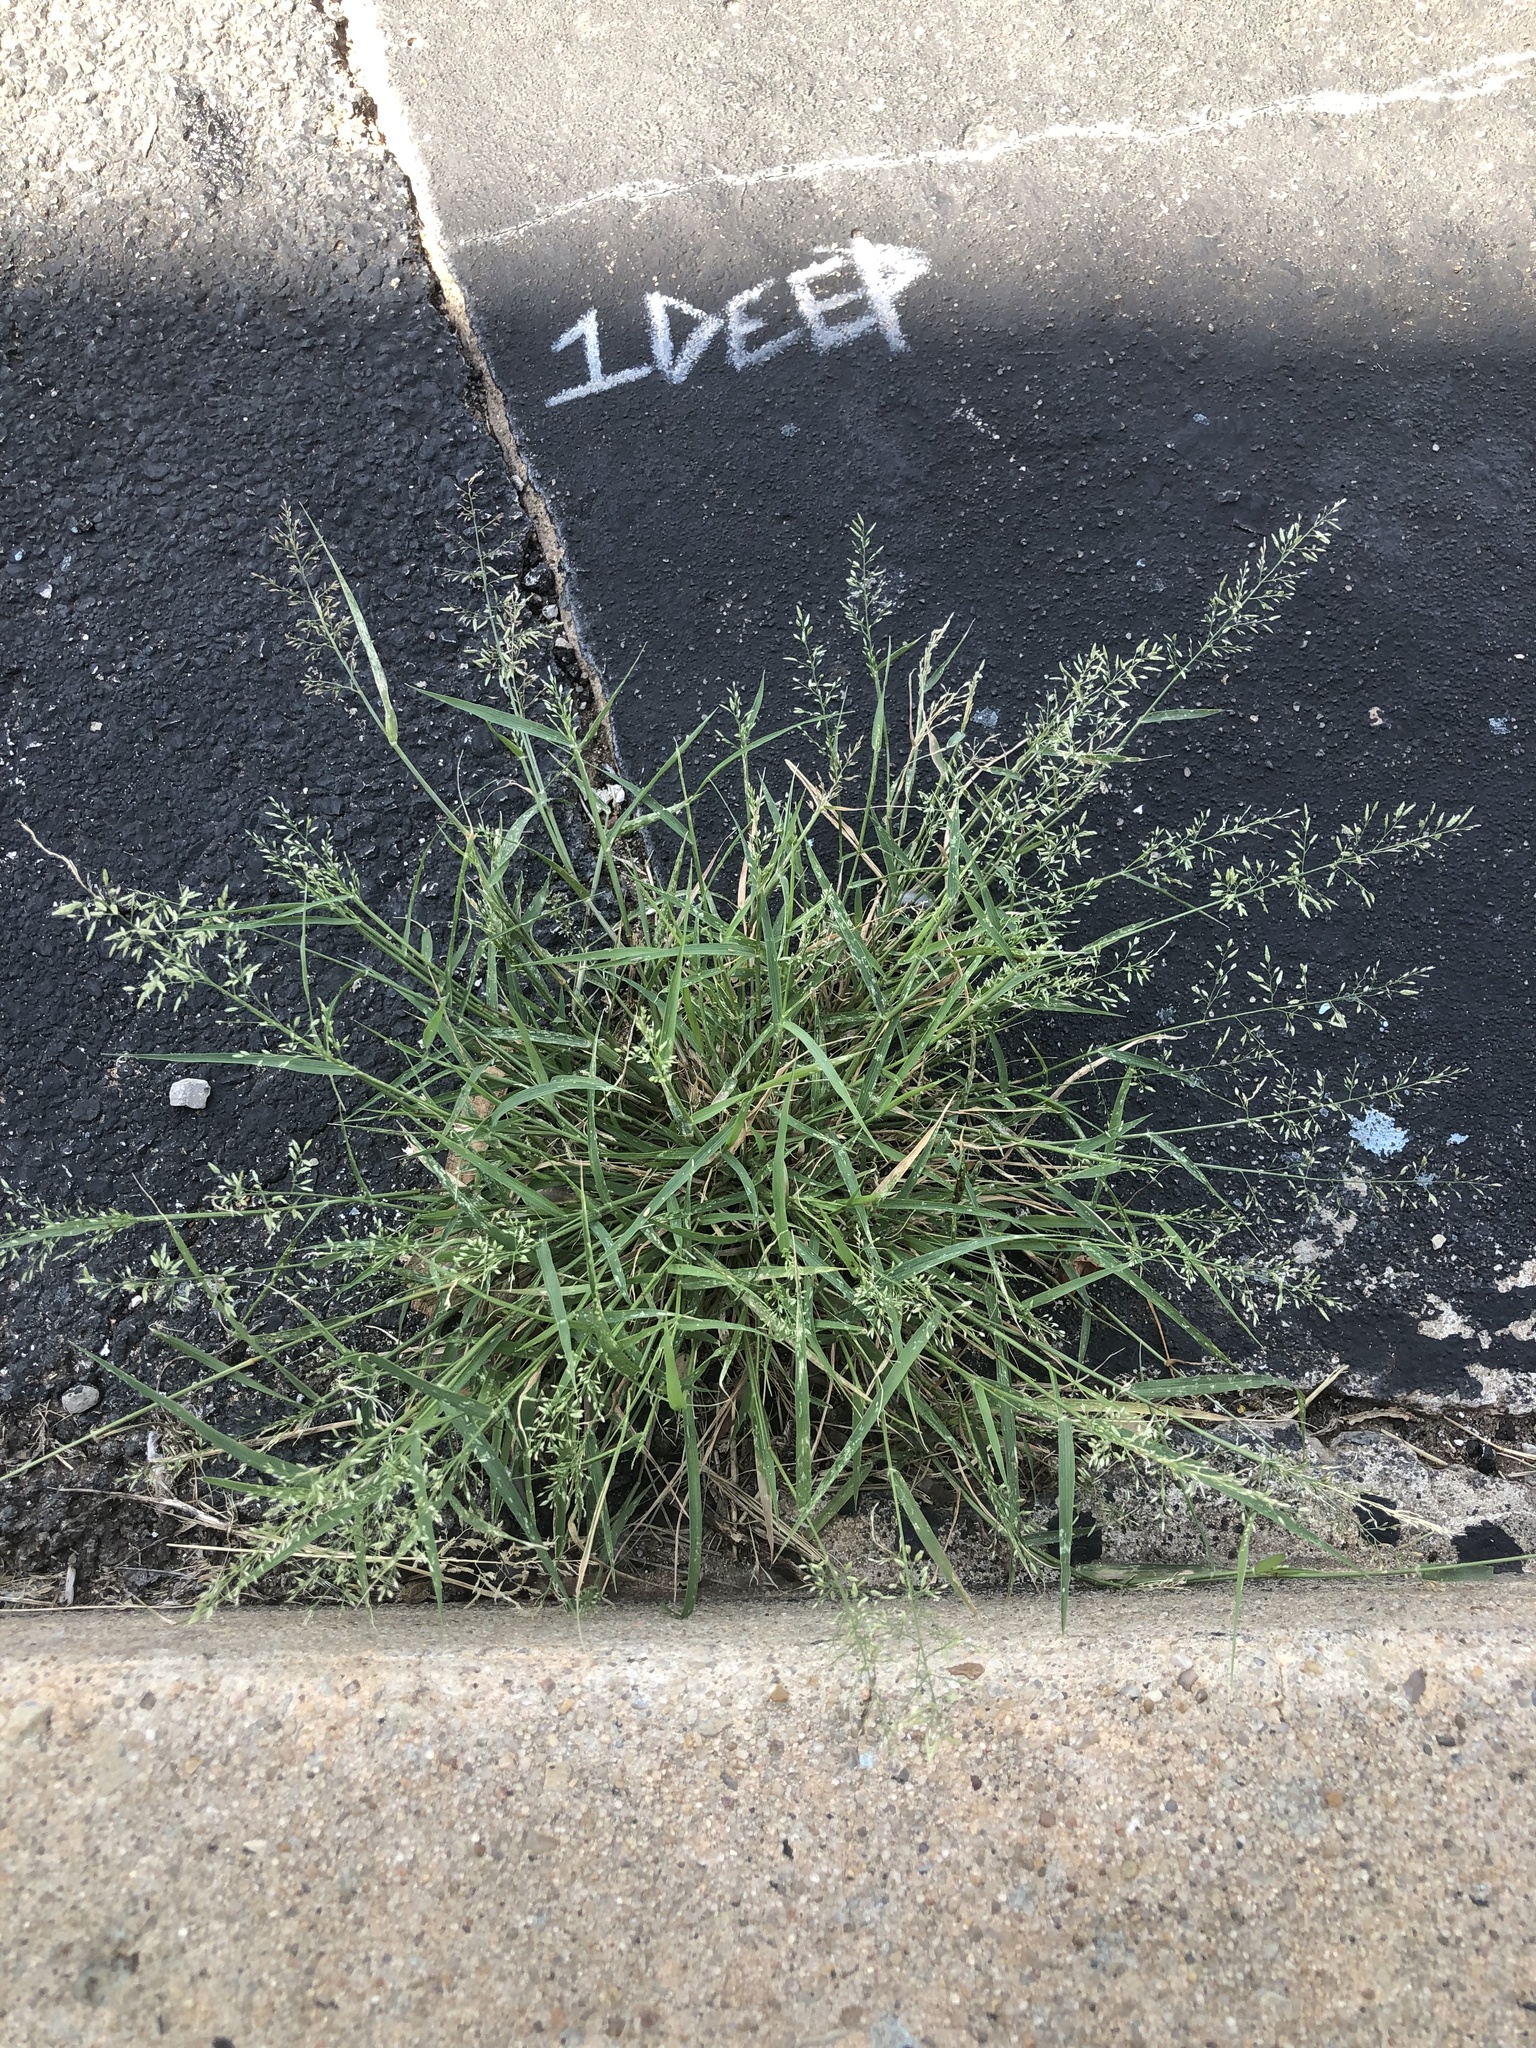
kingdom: Plantae
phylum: Tracheophyta
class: Liliopsida
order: Poales
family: Poaceae
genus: Poa
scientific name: Poa annua
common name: Annual bluegrass
